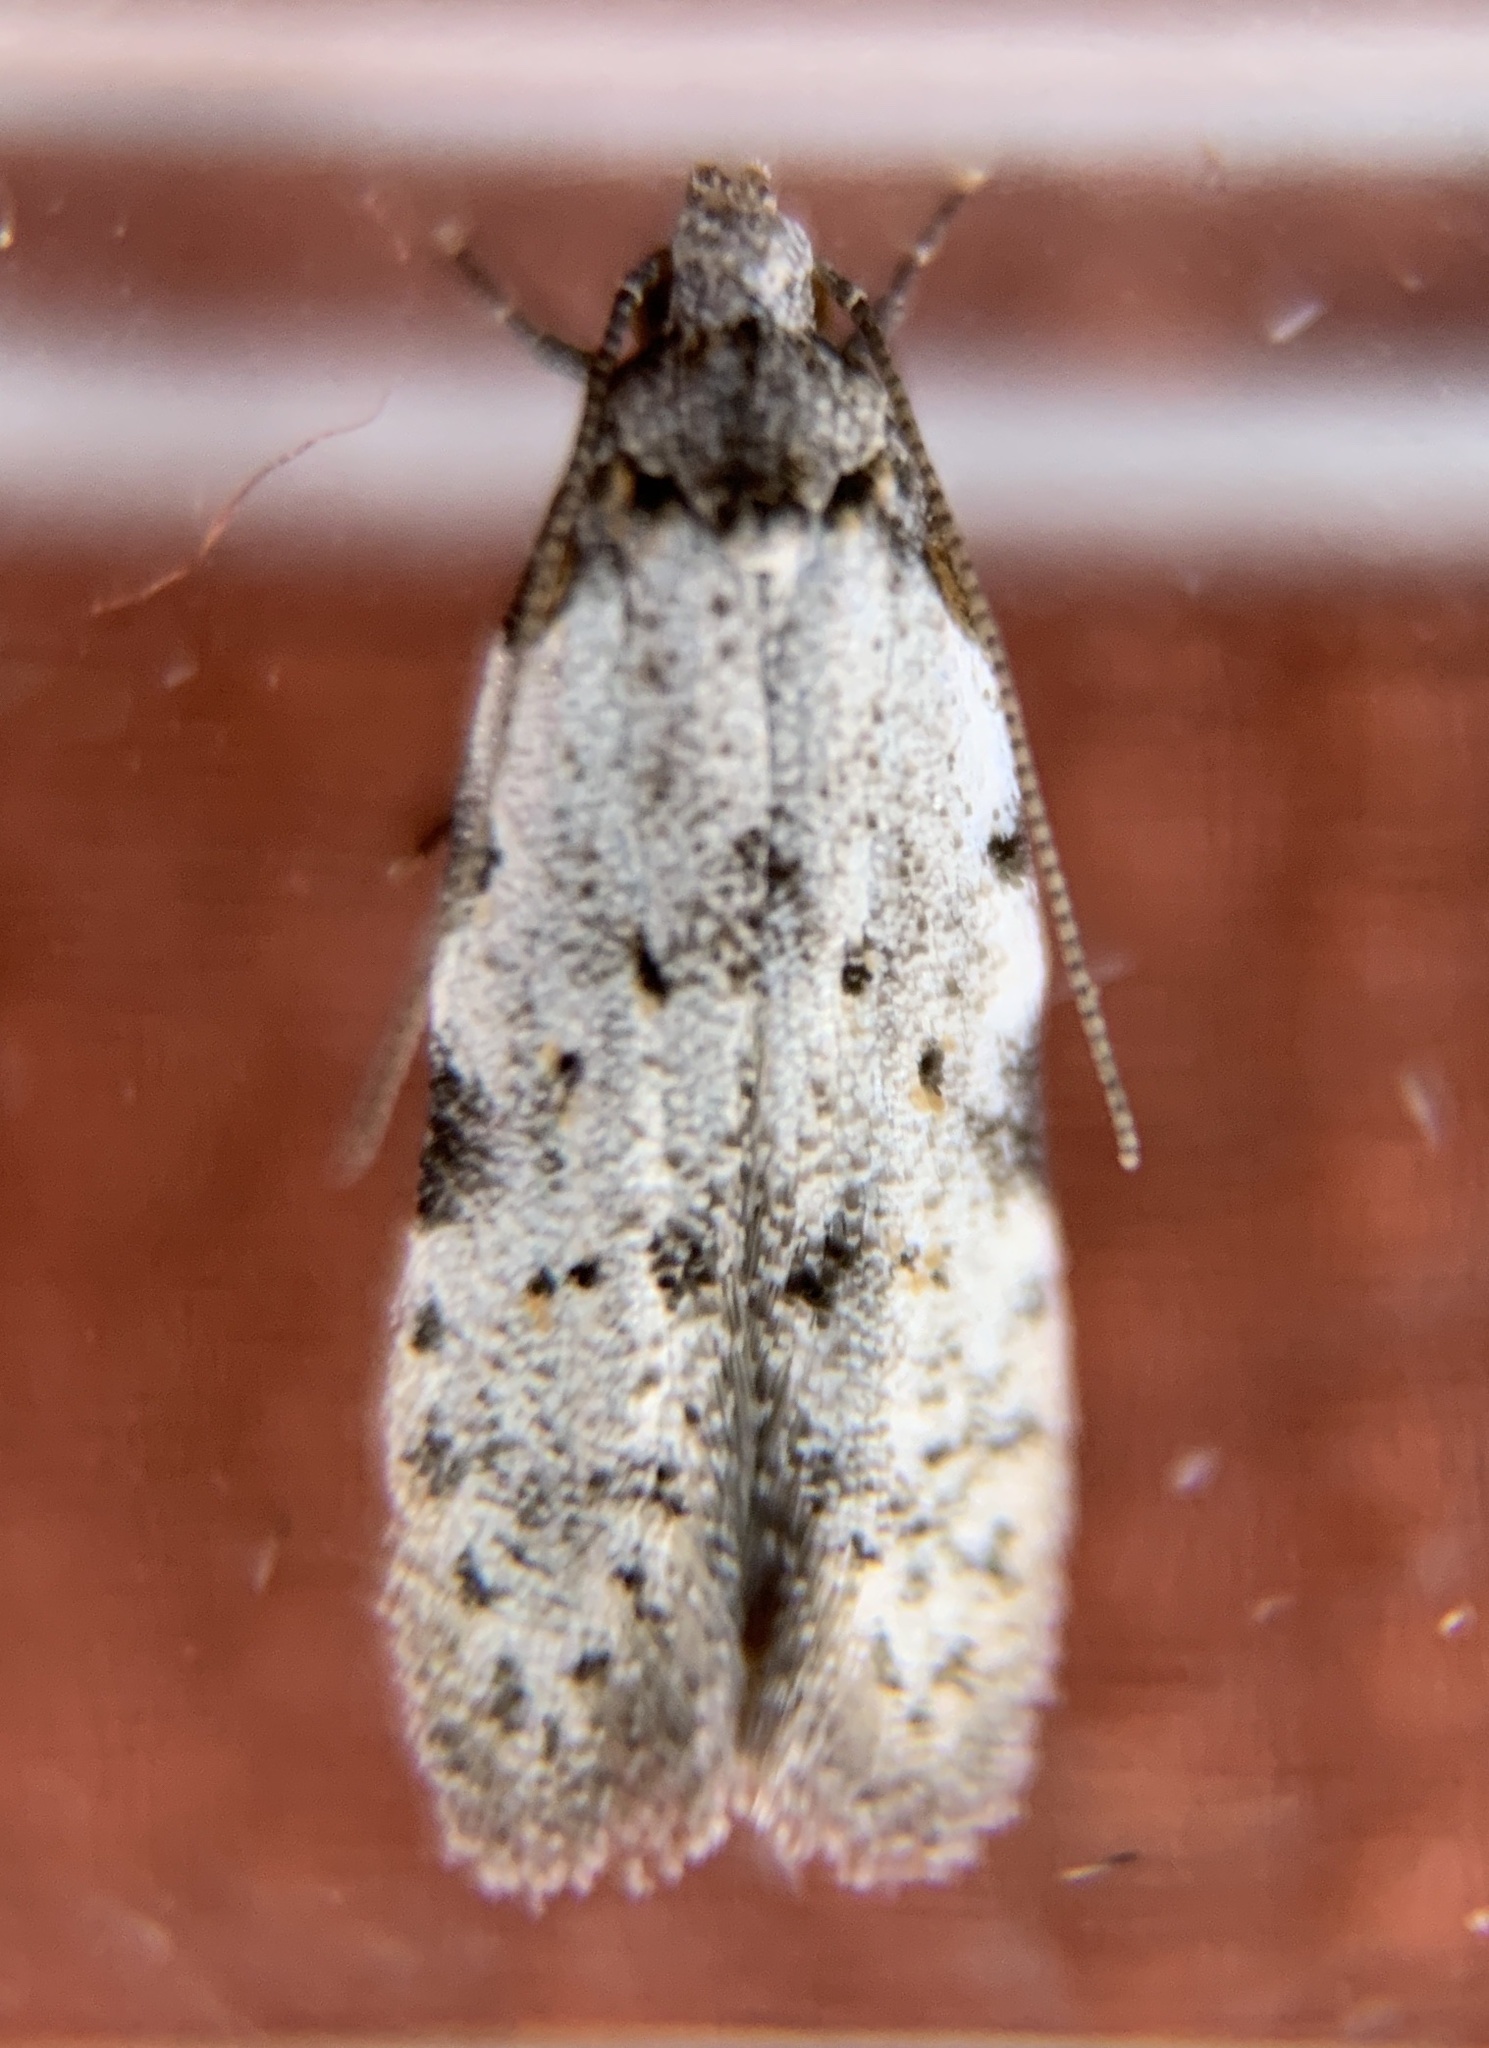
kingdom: Animalia
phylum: Arthropoda
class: Insecta
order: Lepidoptera
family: Autostichidae
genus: Taygete
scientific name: Taygete attributella
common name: Triangle-marked twirler moth
